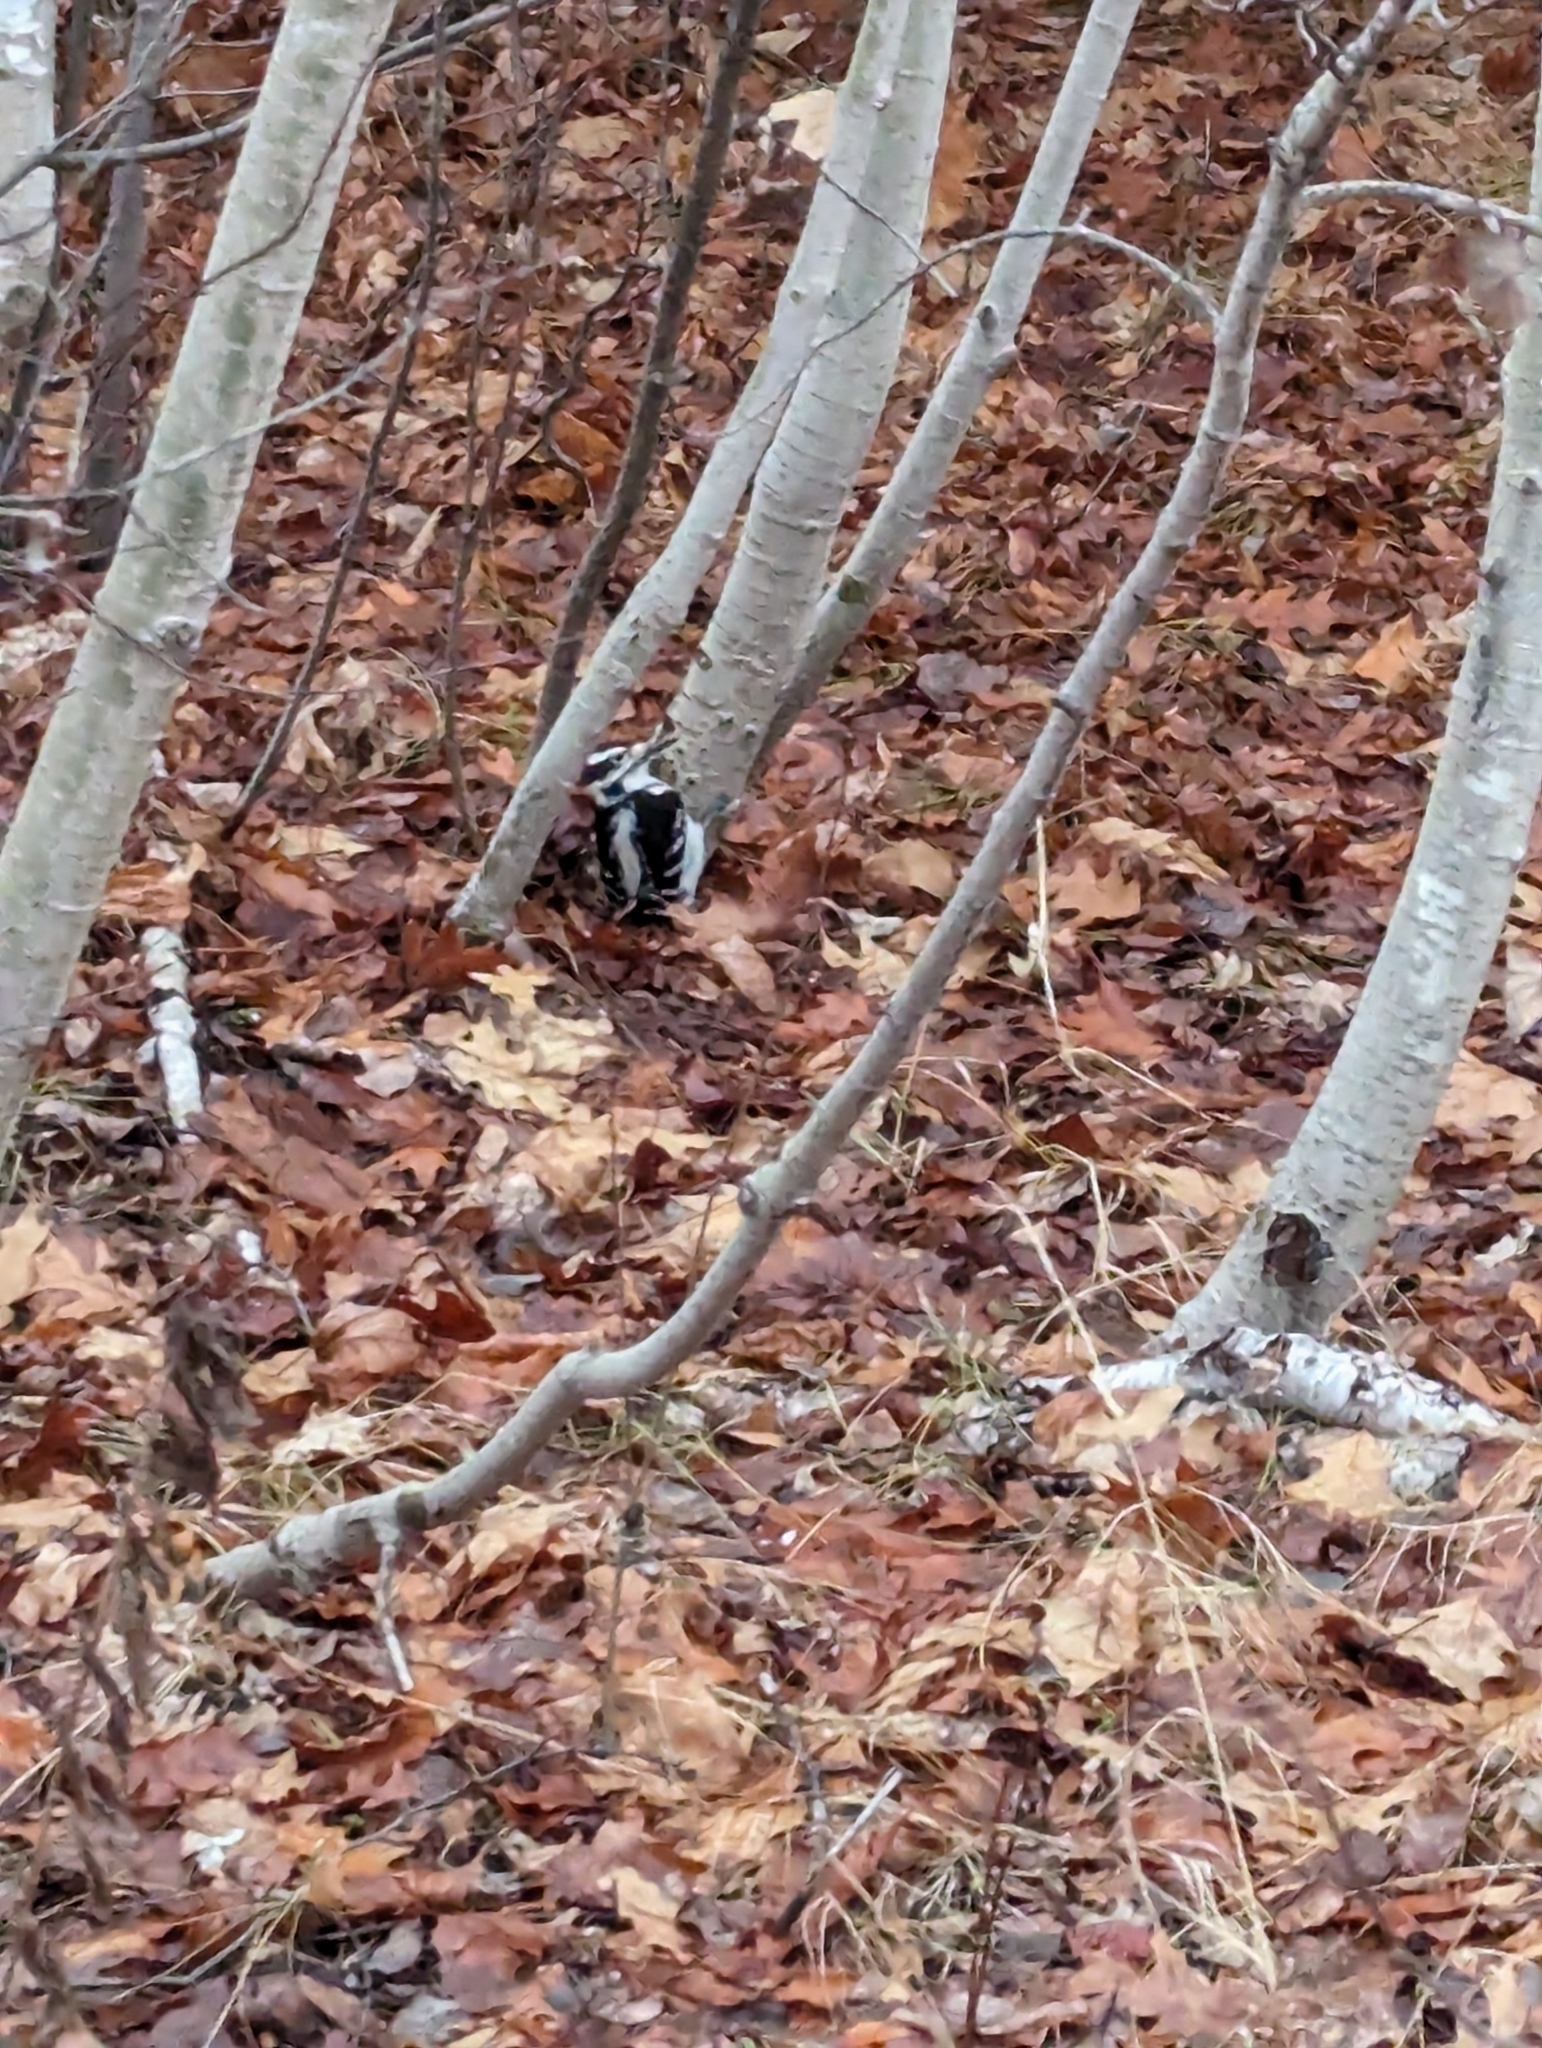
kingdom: Animalia
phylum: Chordata
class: Aves
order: Piciformes
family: Picidae
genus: Leuconotopicus
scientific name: Leuconotopicus villosus
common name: Hairy woodpecker
